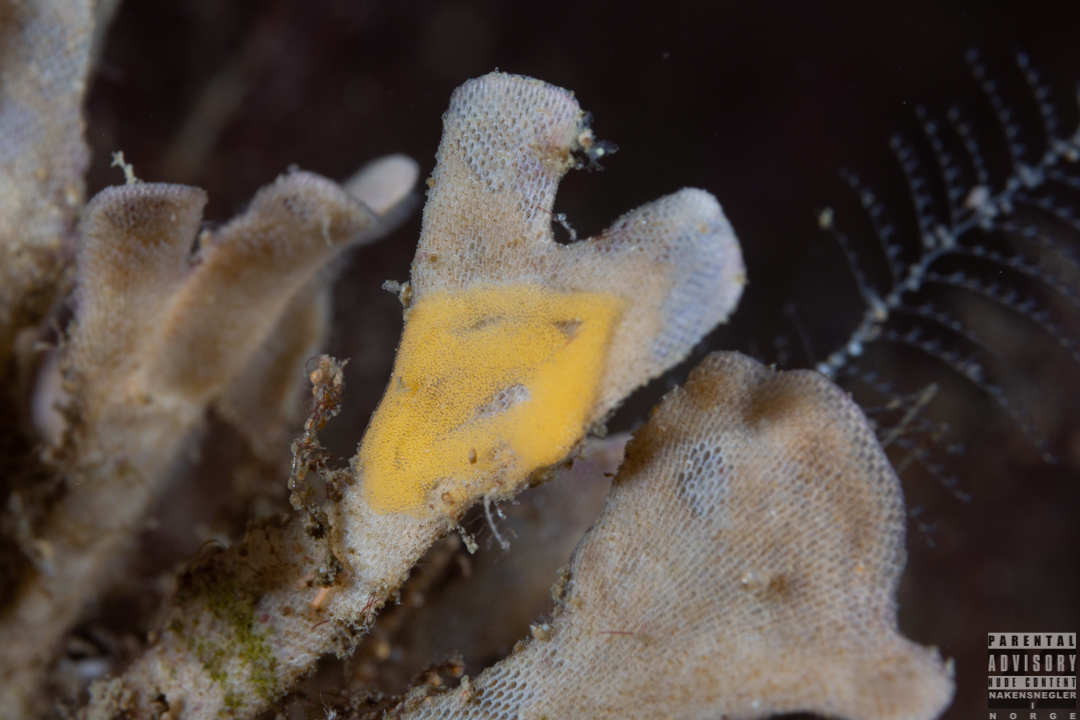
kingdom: Animalia
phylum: Mollusca
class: Gastropoda
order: Nudibranchia
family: Polyceridae
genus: Crimora
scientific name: Crimora papillata
